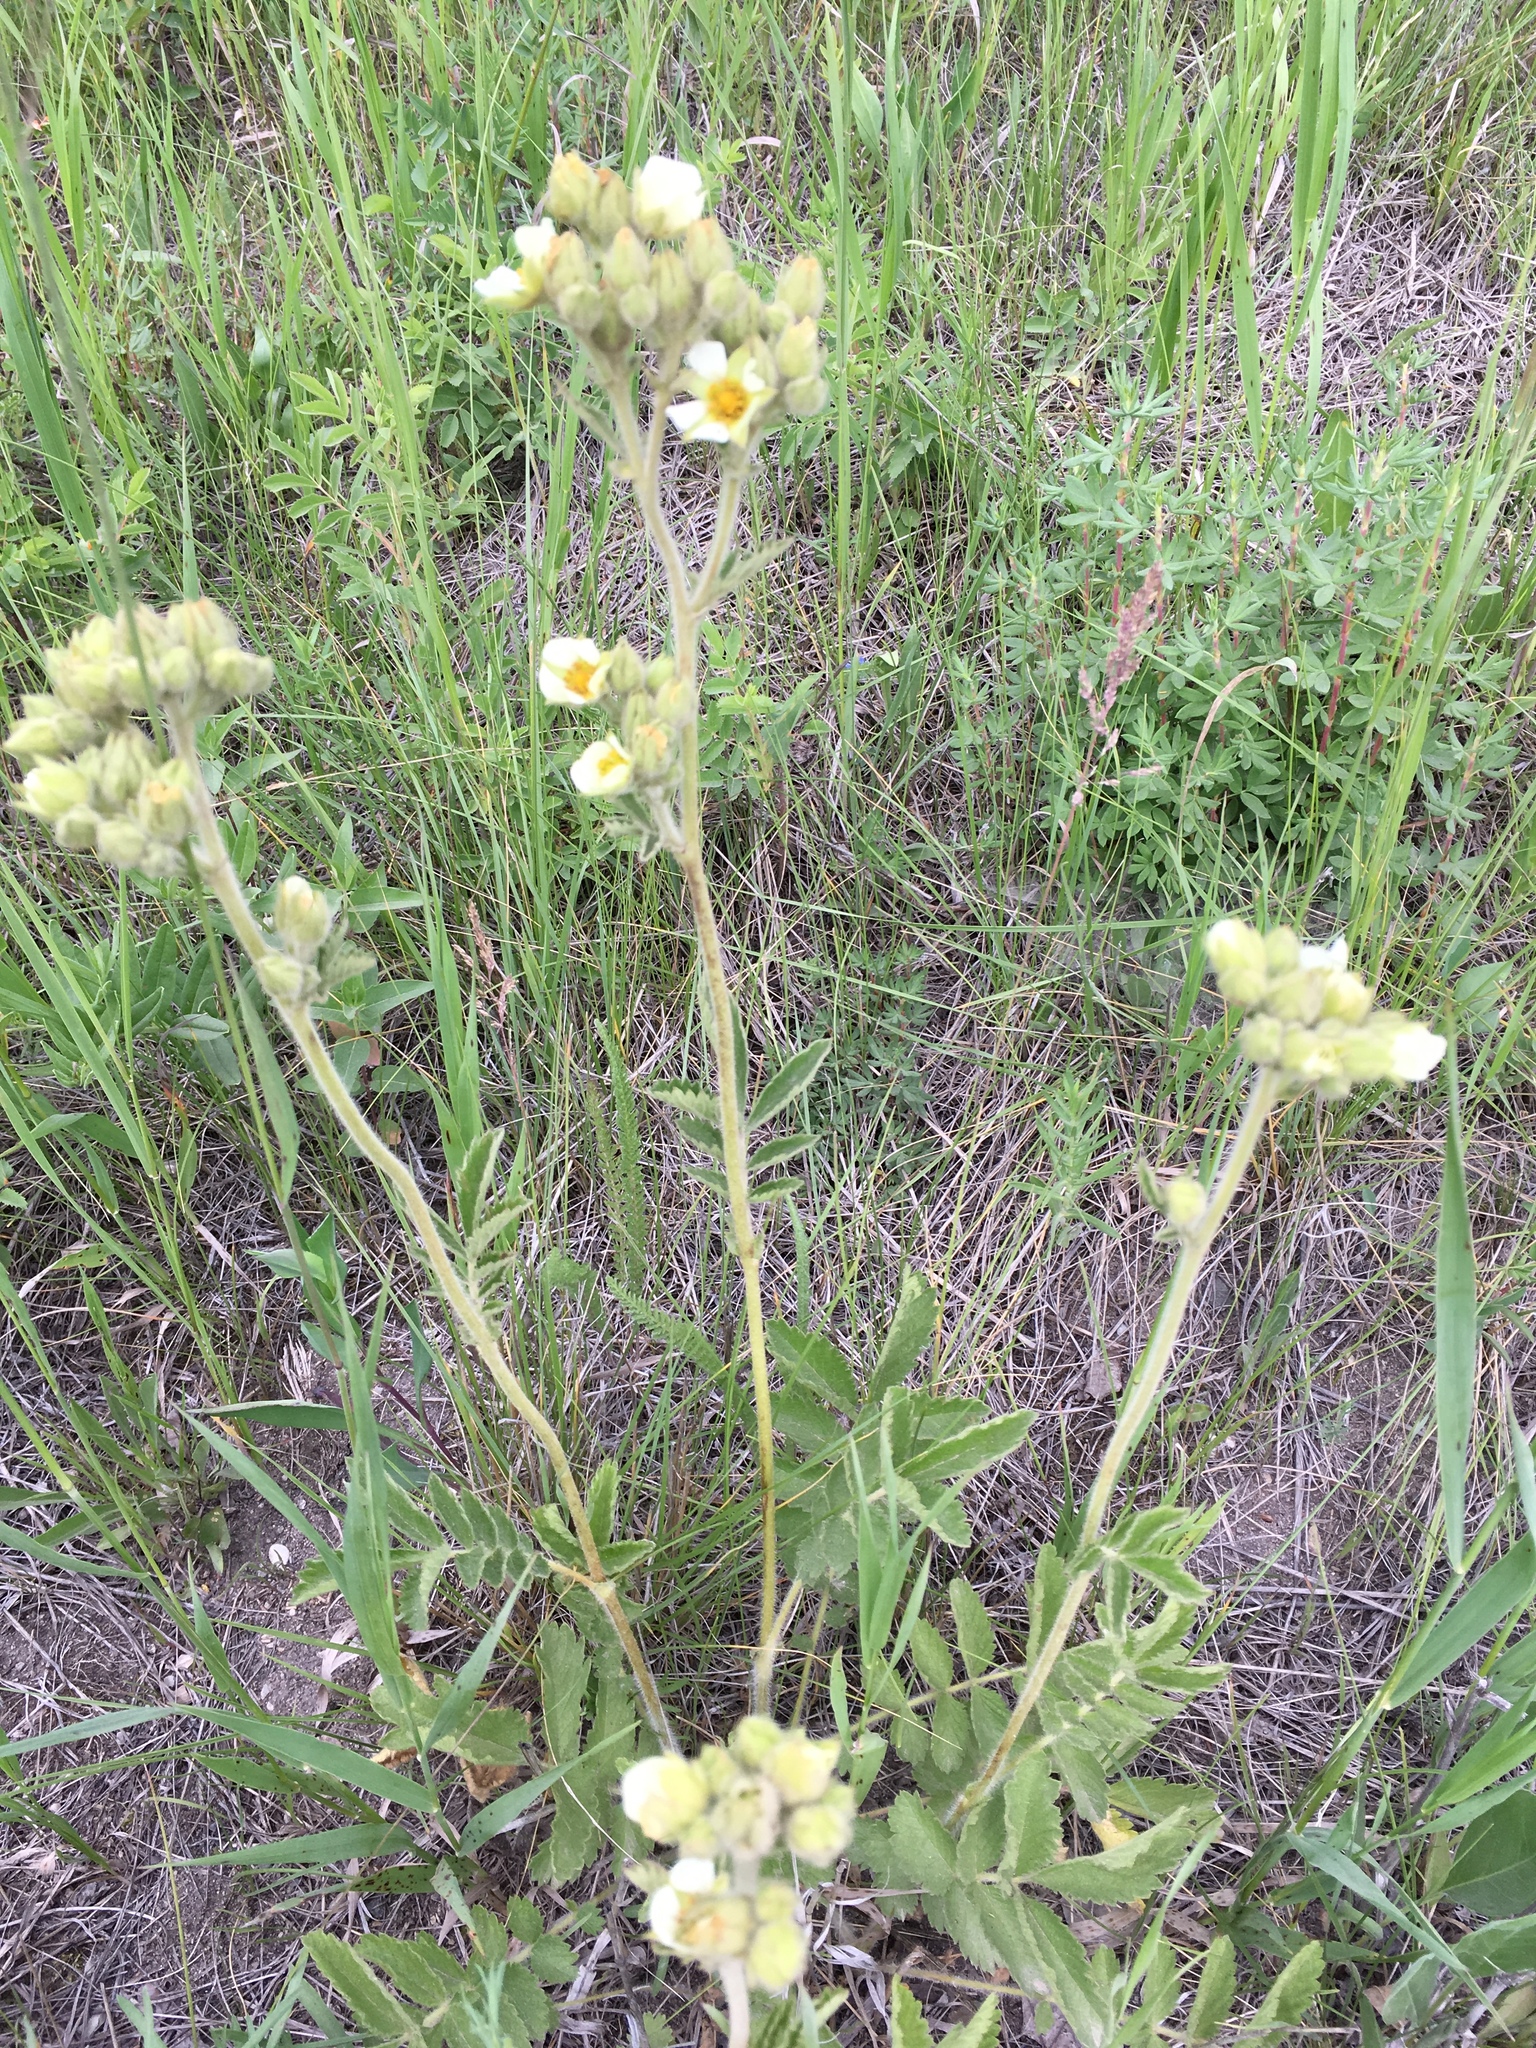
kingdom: Plantae
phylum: Tracheophyta
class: Magnoliopsida
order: Rosales
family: Rosaceae
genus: Drymocallis
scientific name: Drymocallis arguta
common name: Tall cinquefoil
